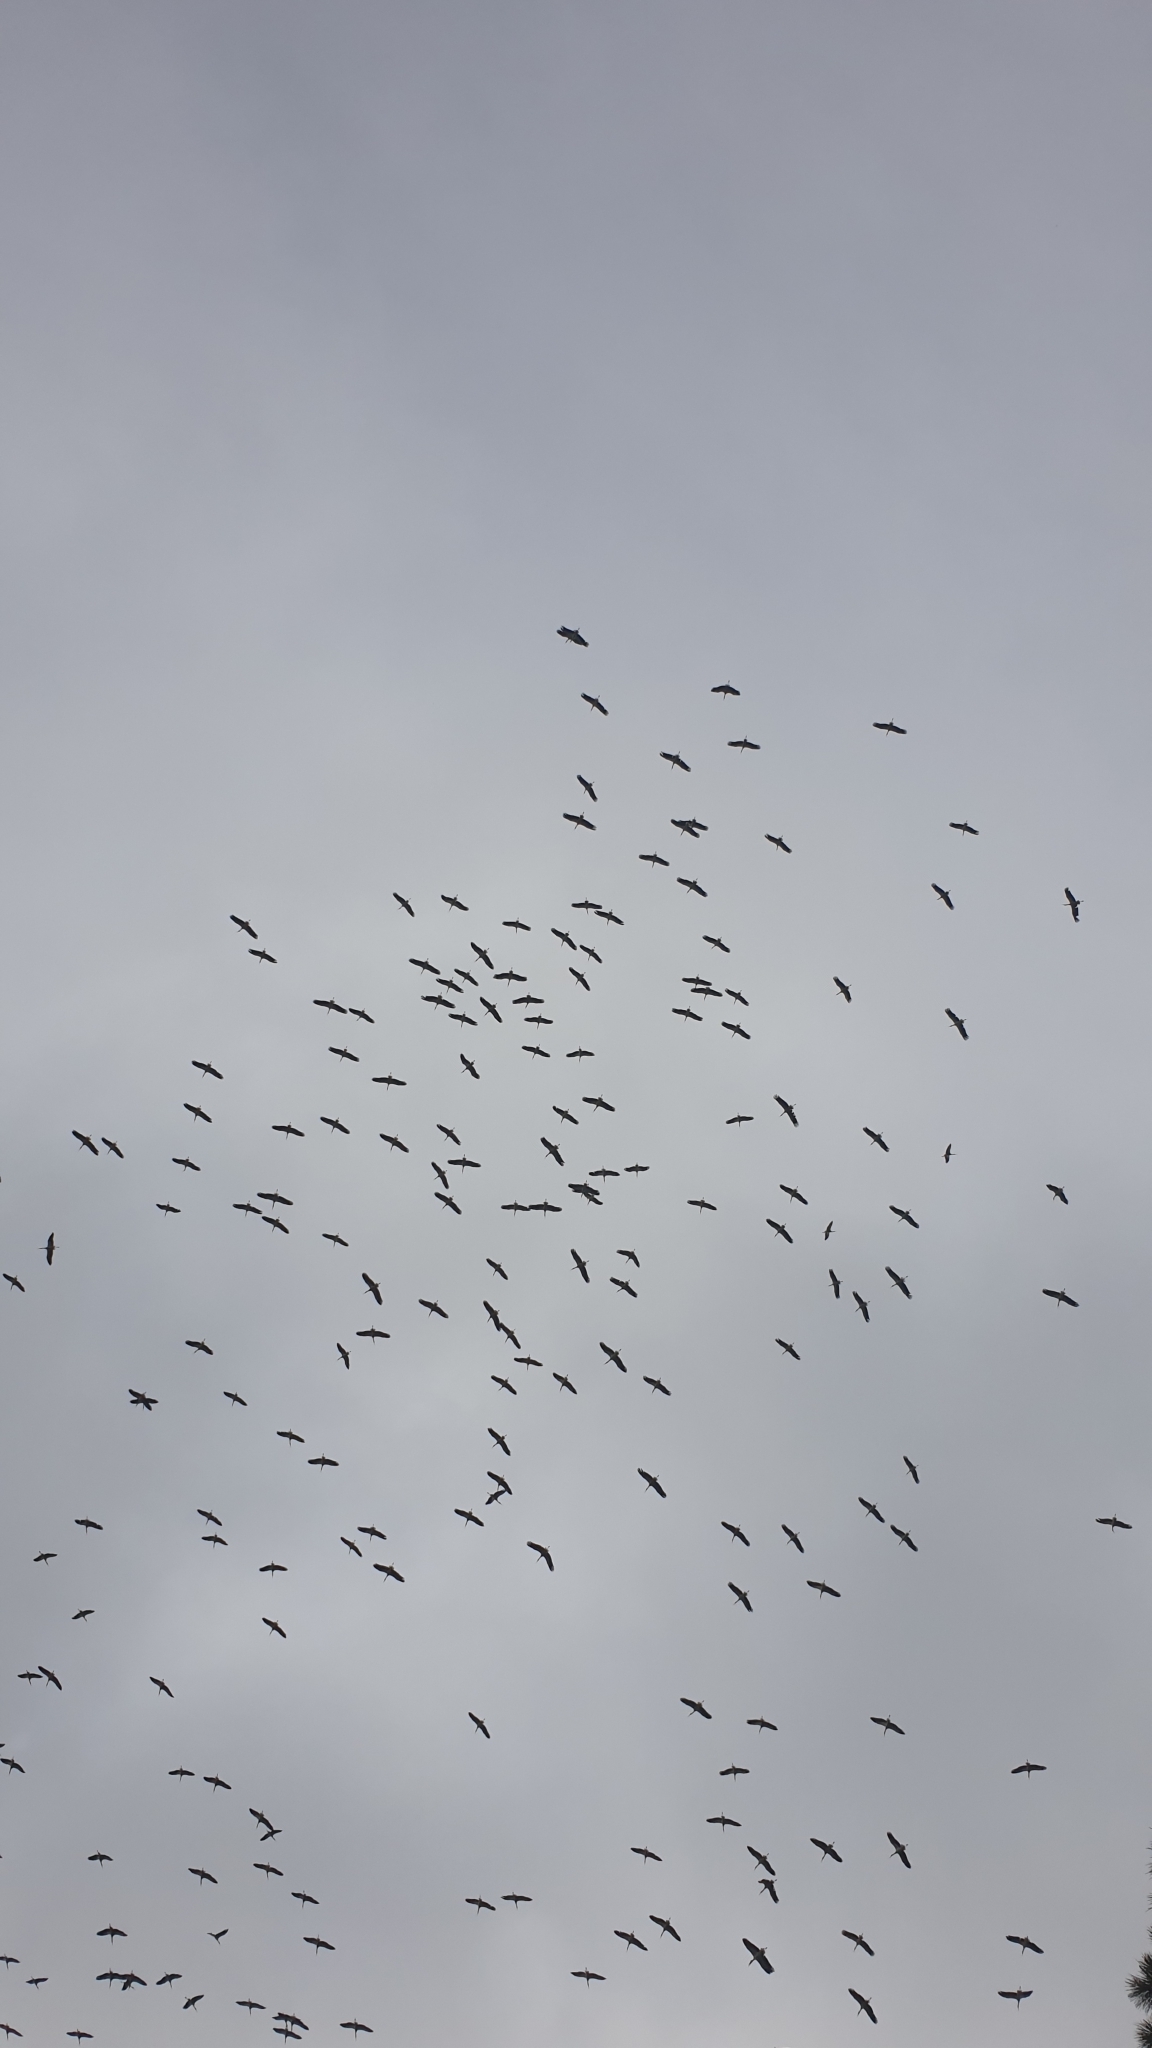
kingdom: Animalia
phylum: Chordata
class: Aves
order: Ciconiiformes
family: Ciconiidae
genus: Ciconia
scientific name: Ciconia ciconia
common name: White stork
